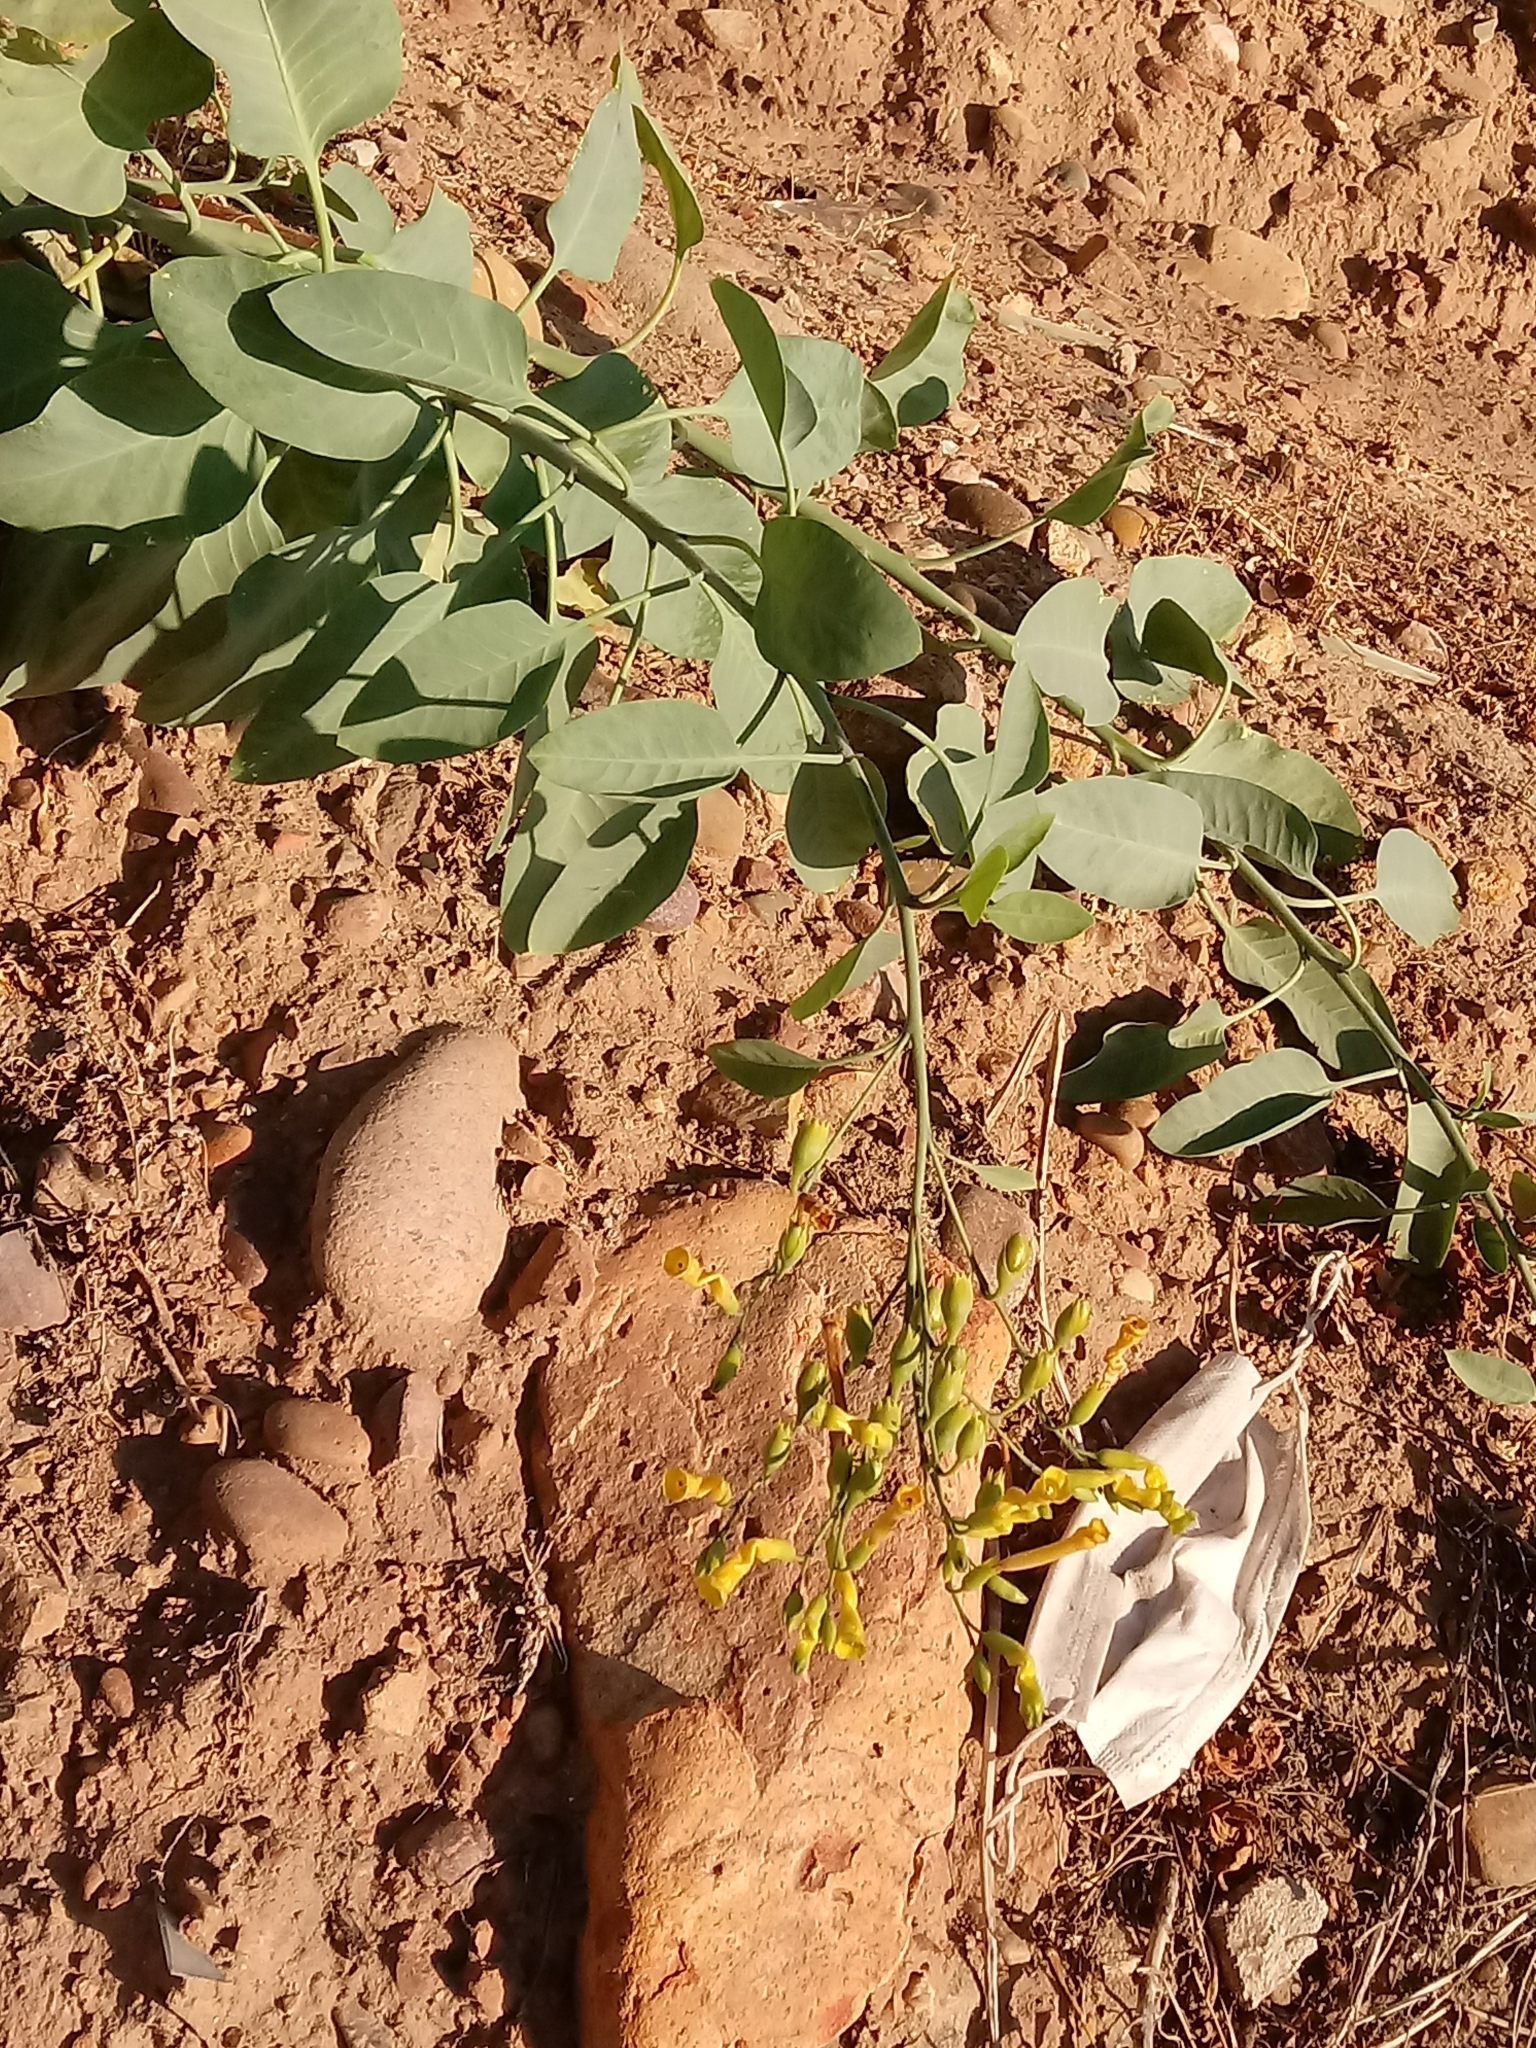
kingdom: Plantae
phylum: Tracheophyta
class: Magnoliopsida
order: Solanales
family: Solanaceae
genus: Nicotiana
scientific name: Nicotiana glauca
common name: Tree tobacco
